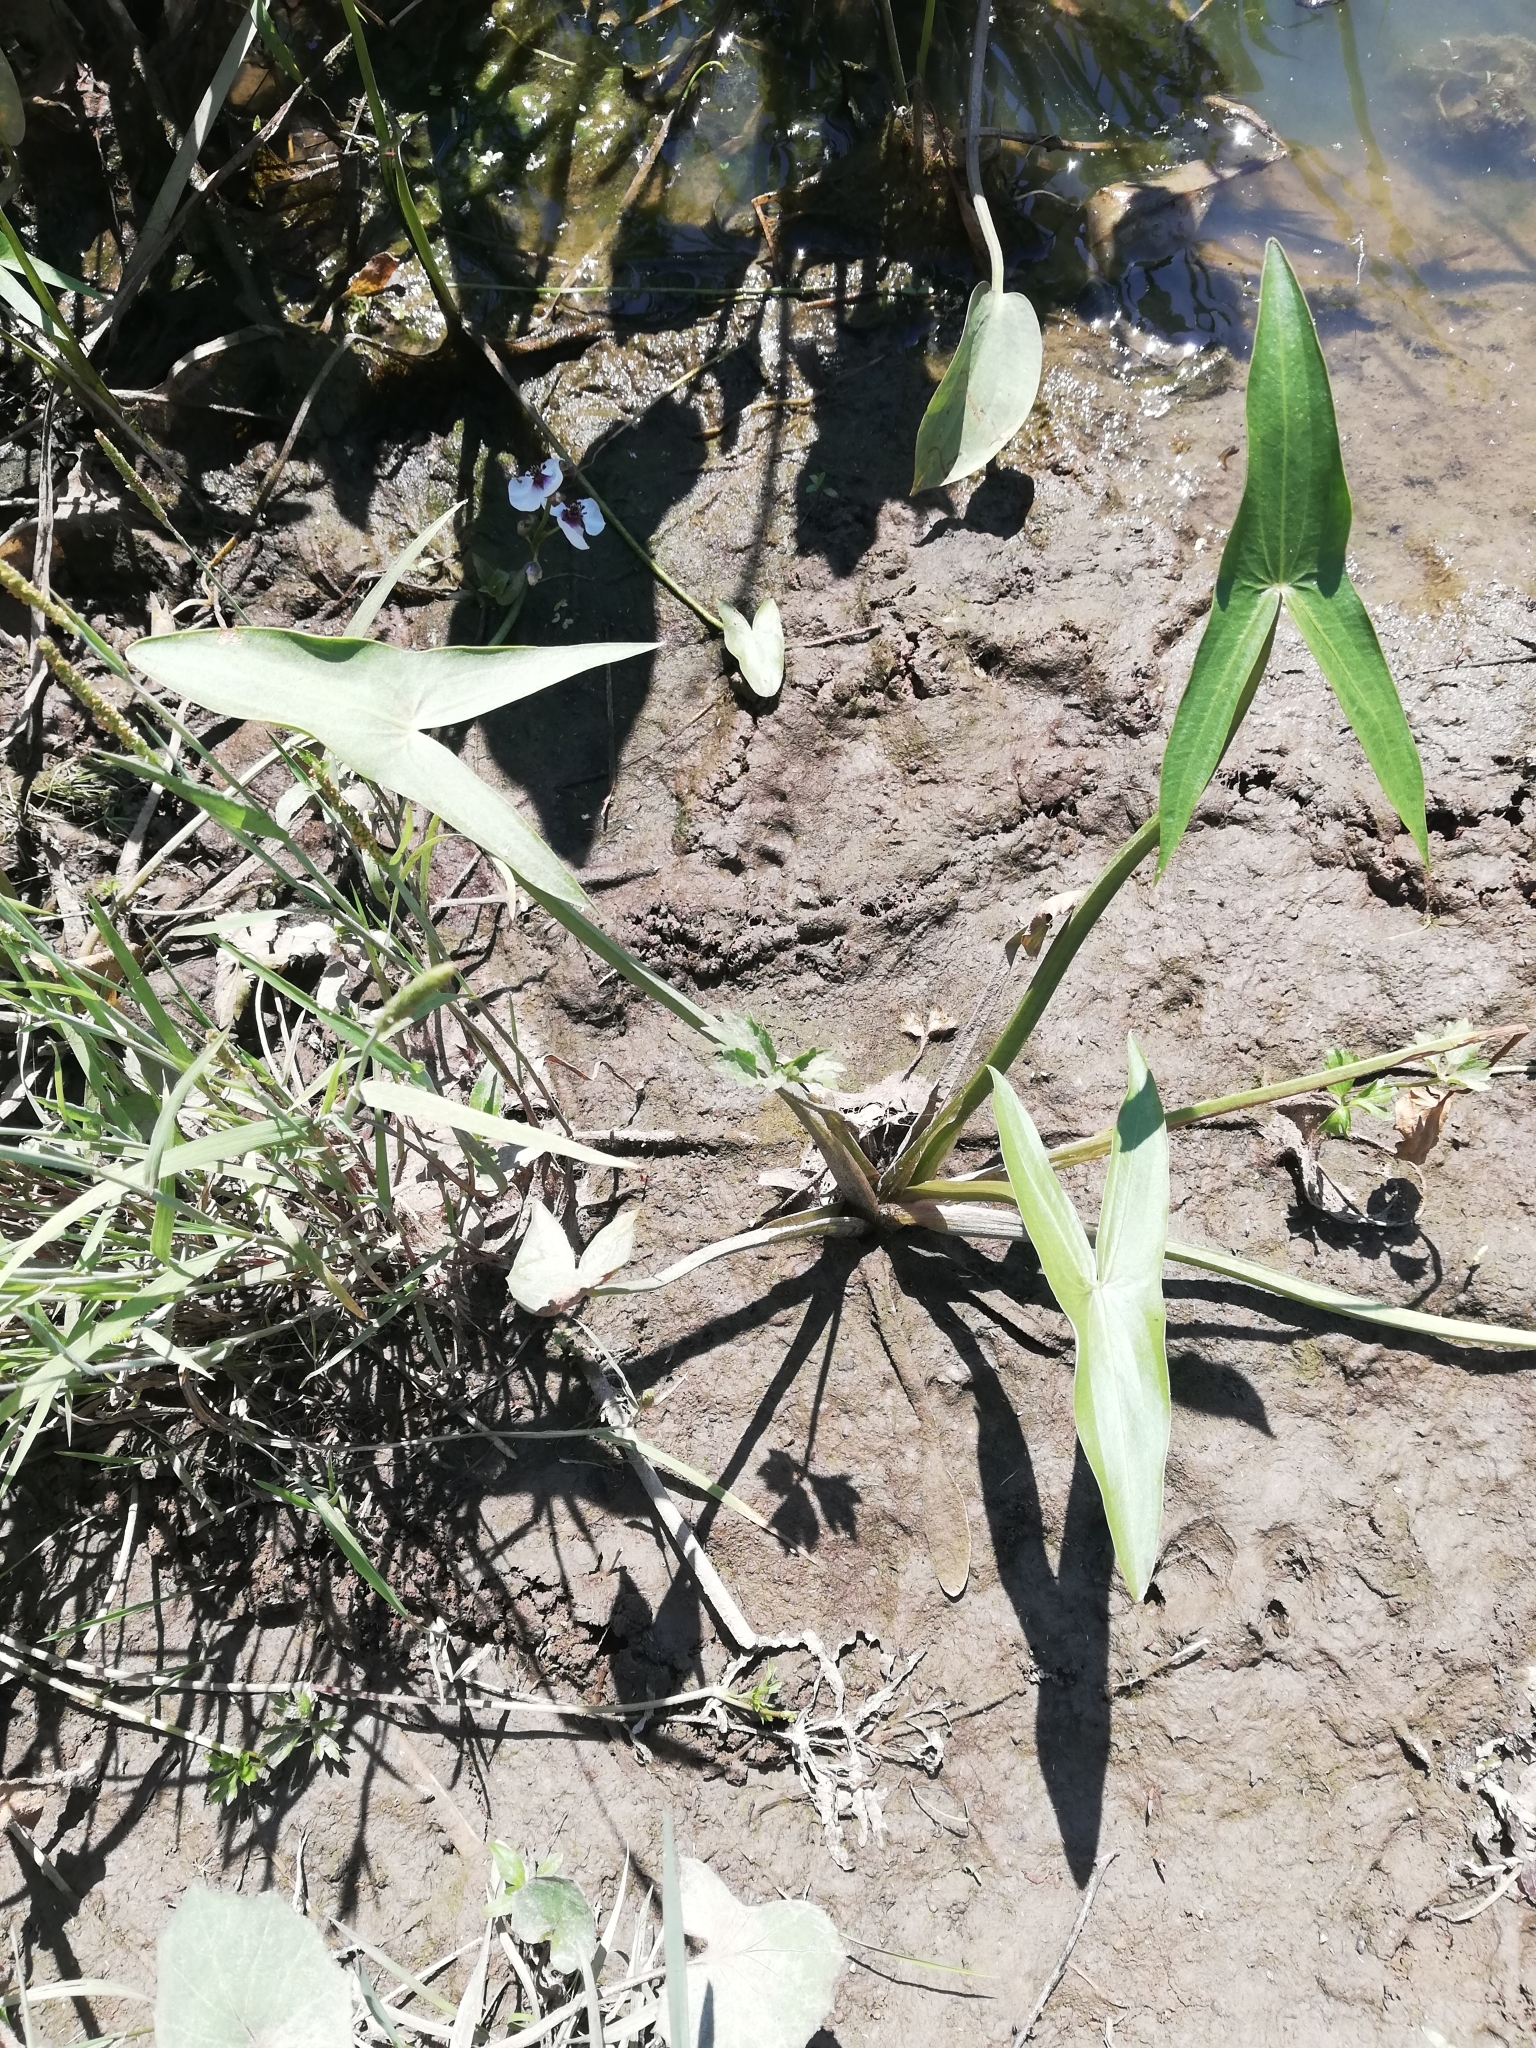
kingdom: Plantae
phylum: Tracheophyta
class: Liliopsida
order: Alismatales
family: Alismataceae
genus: Sagittaria
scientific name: Sagittaria sagittifolia
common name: Arrowhead
